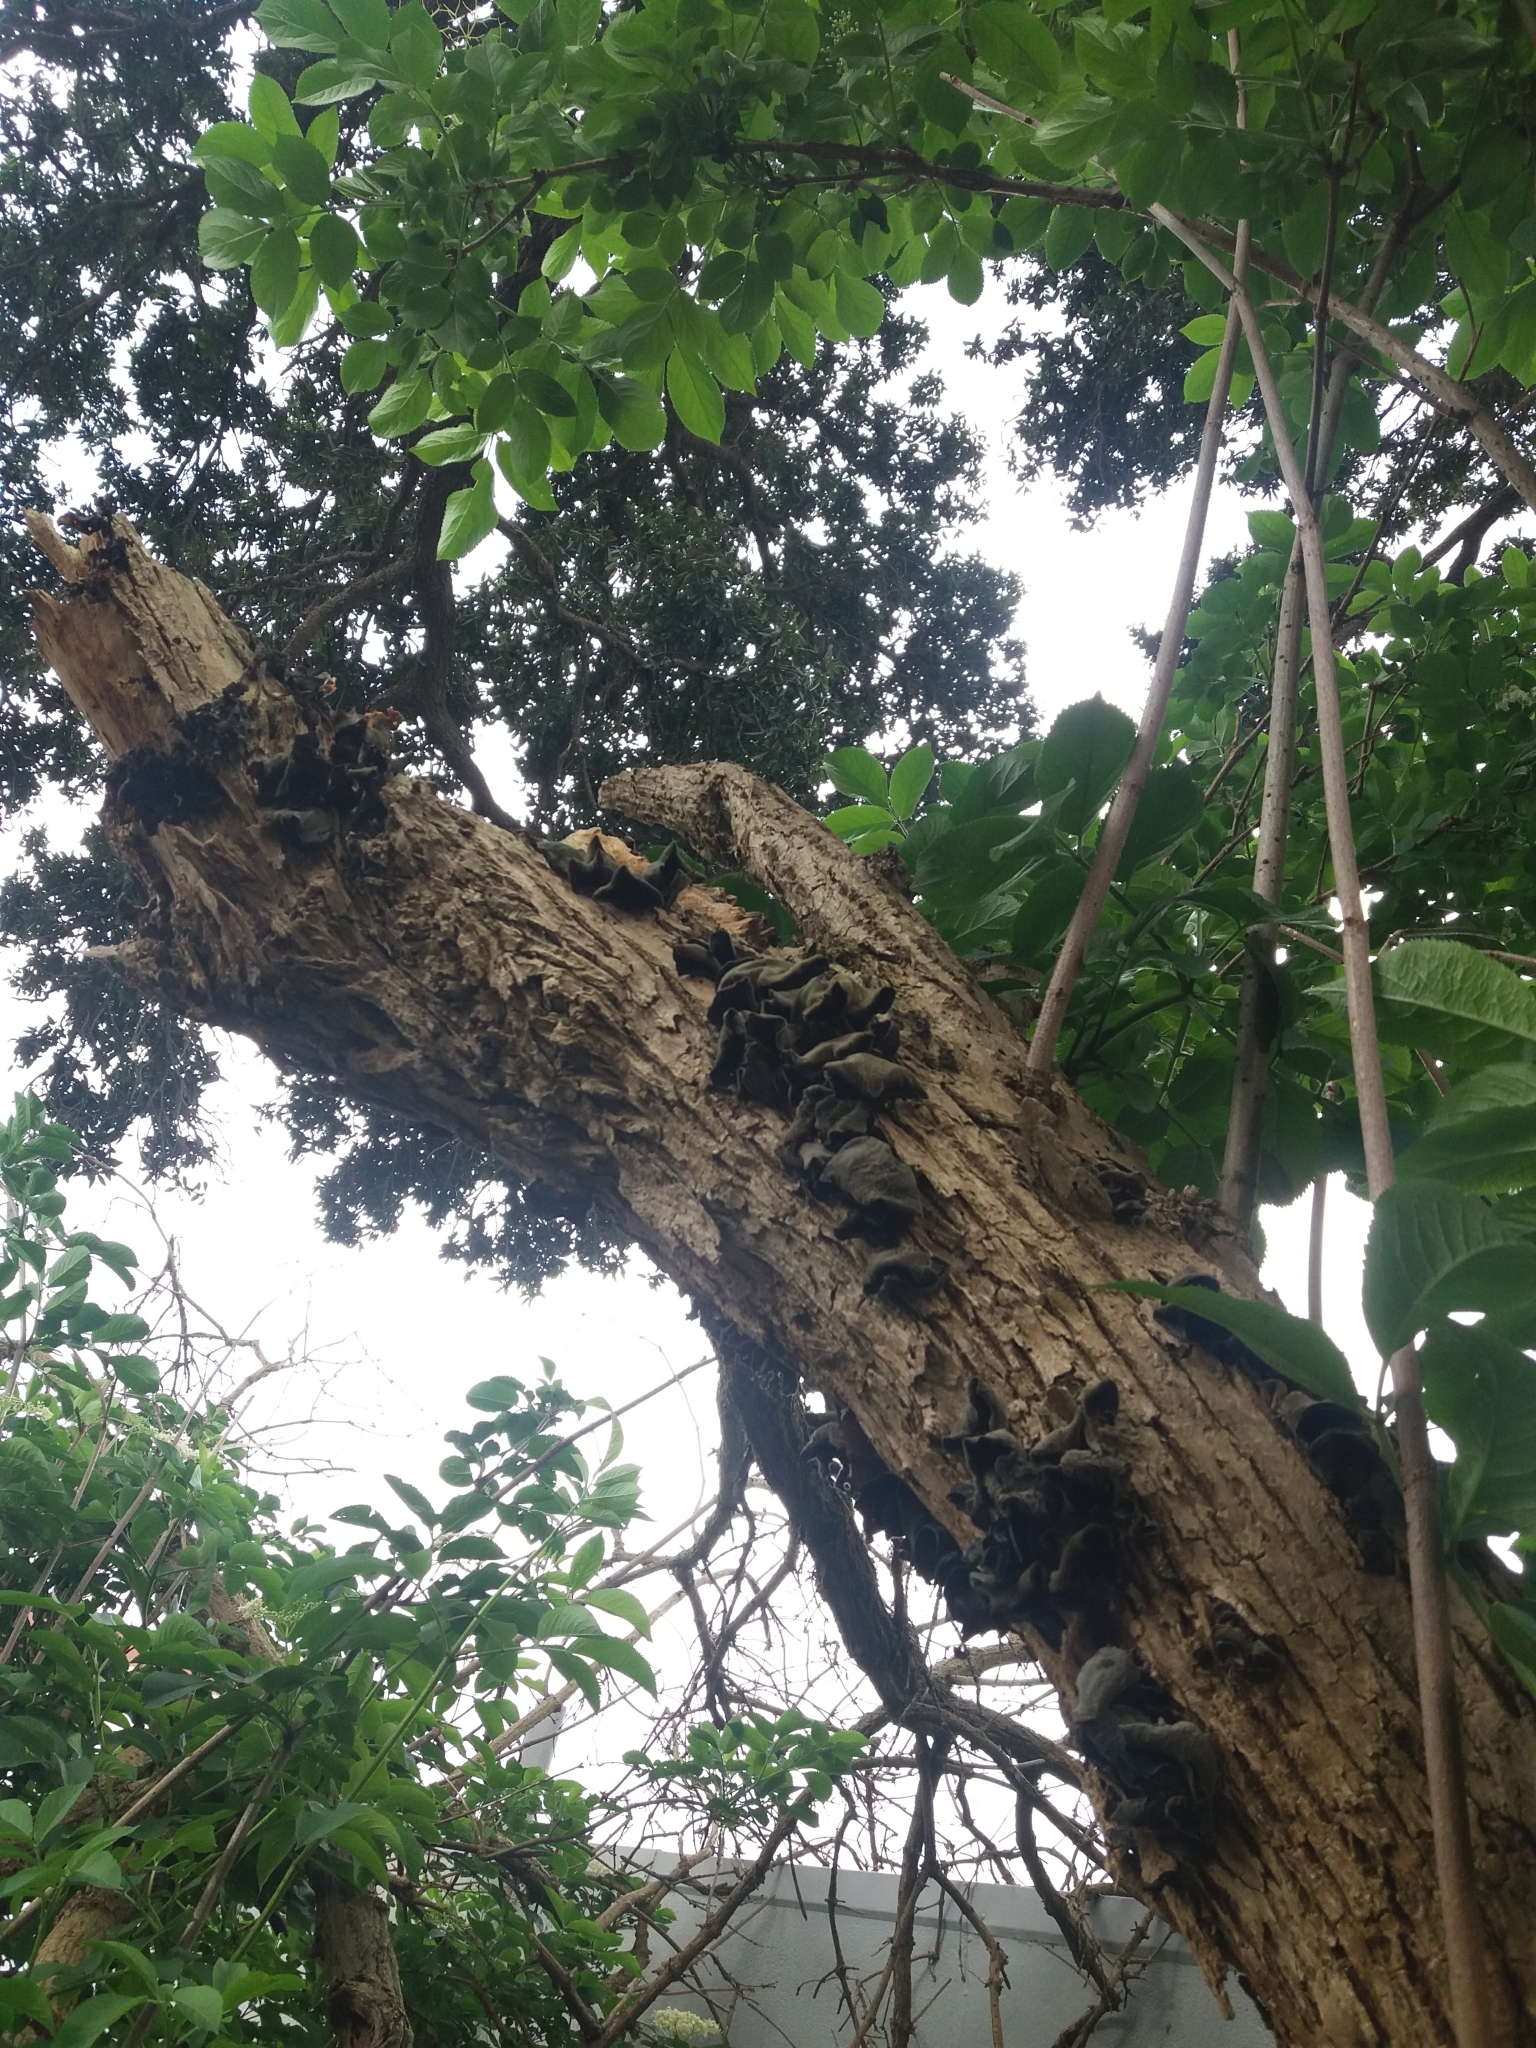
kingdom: Fungi
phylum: Basidiomycota
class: Agaricomycetes
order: Auriculariales
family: Auriculariaceae
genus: Auricularia
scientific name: Auricularia cornea
